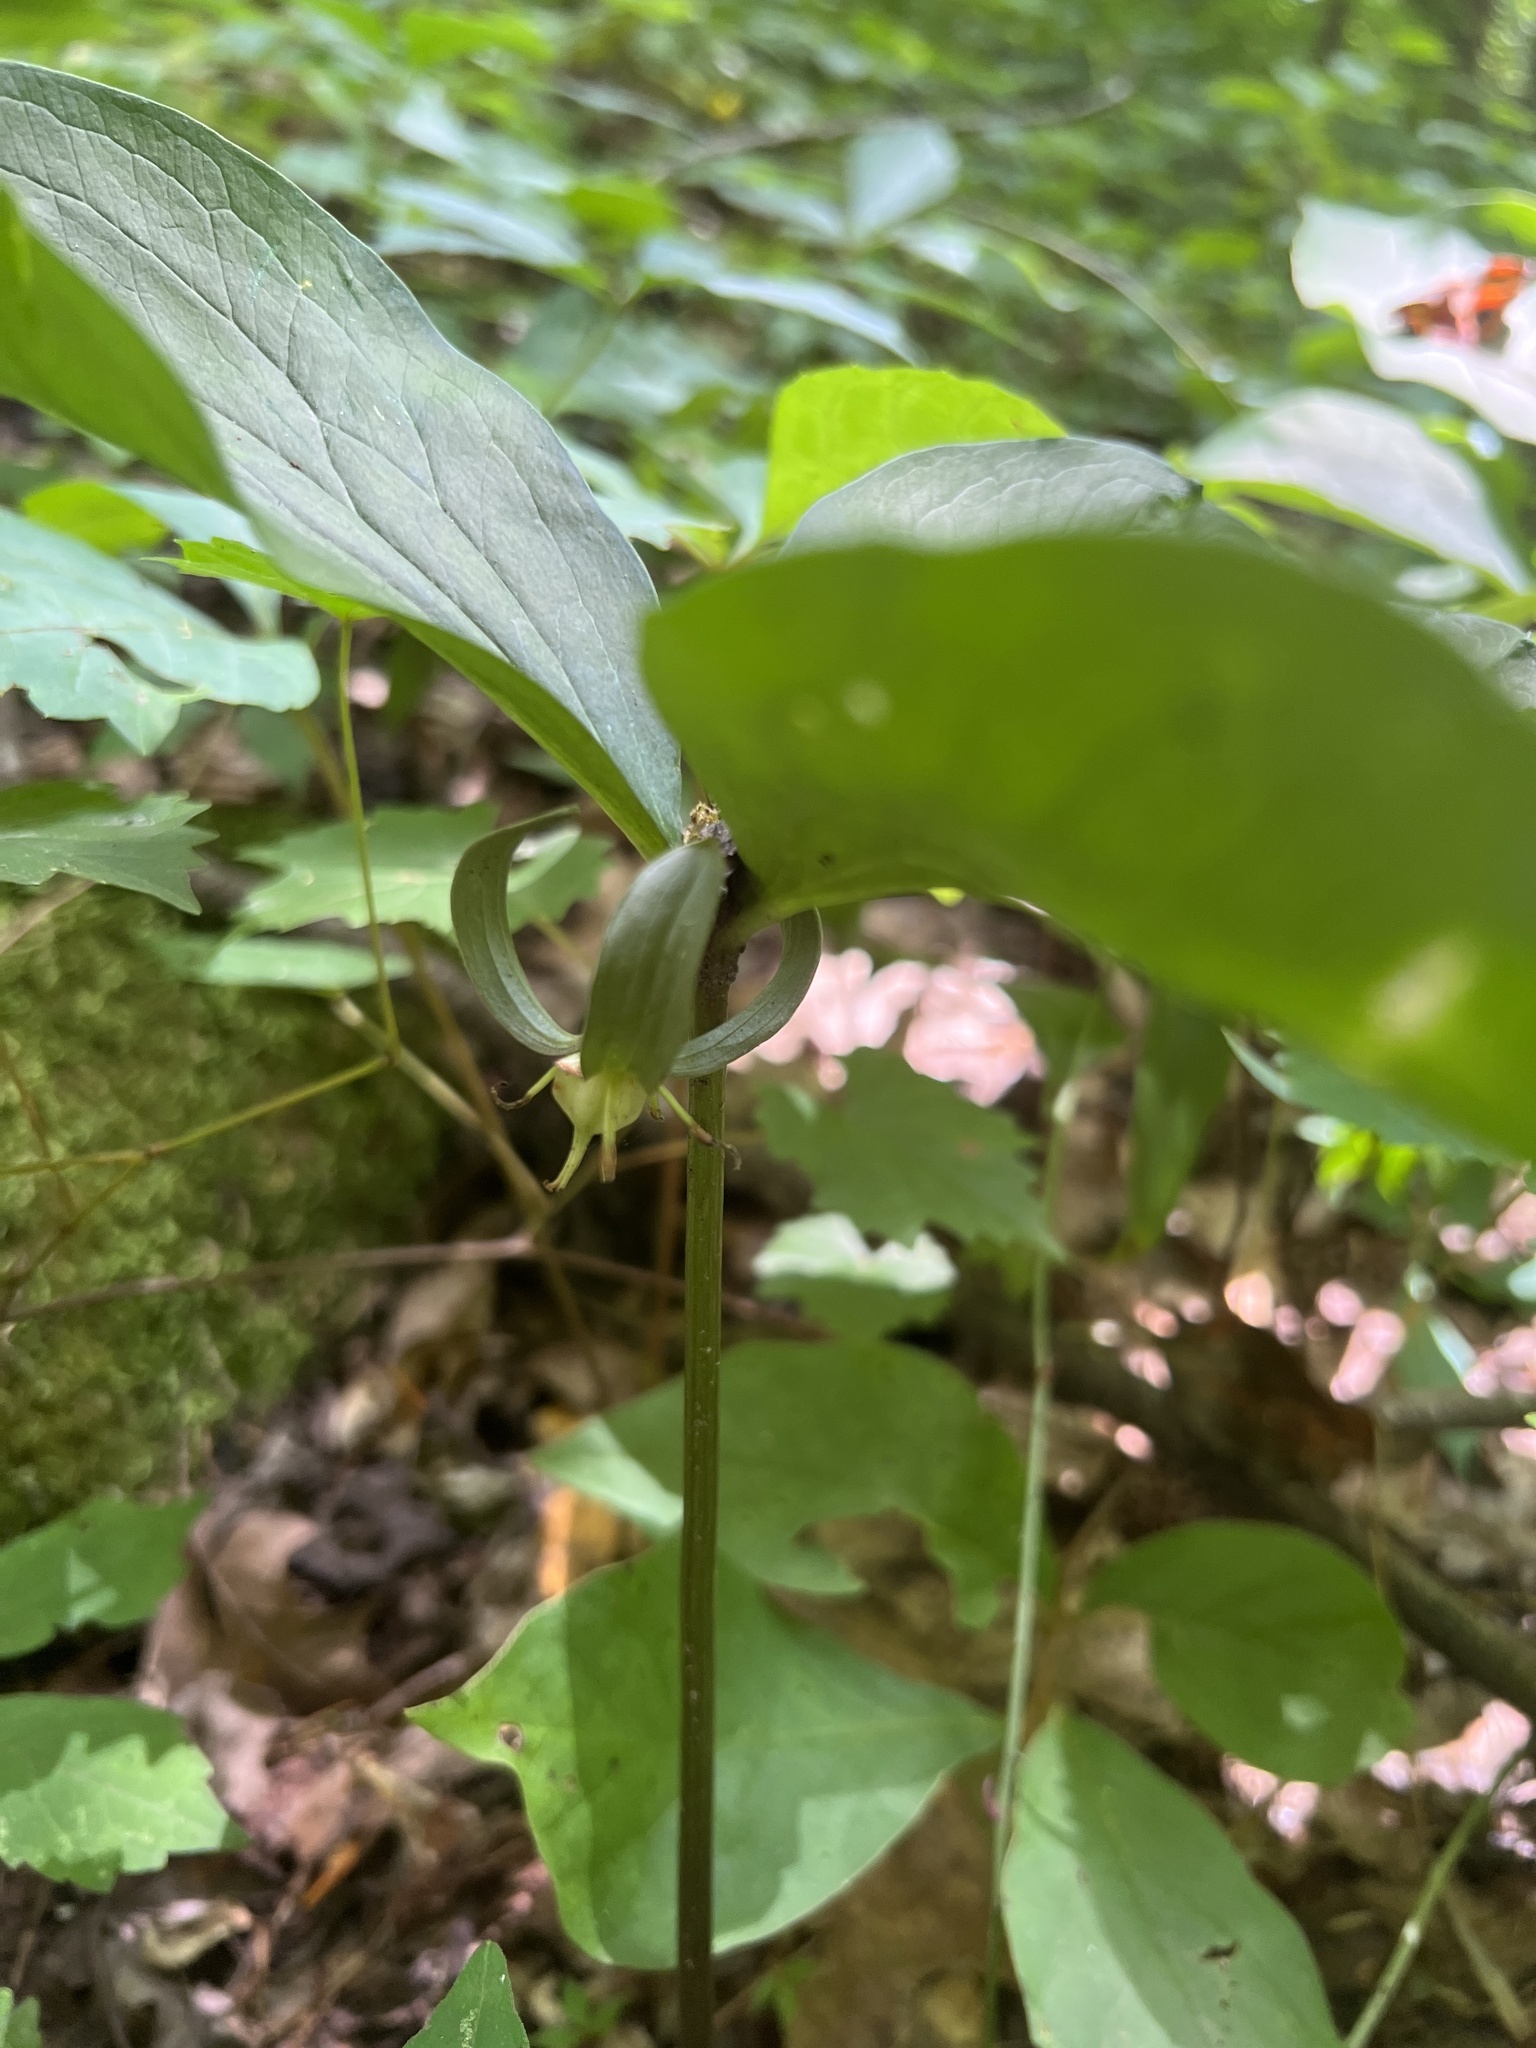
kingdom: Plantae
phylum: Tracheophyta
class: Liliopsida
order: Liliales
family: Melanthiaceae
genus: Trillium
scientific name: Trillium catesbaei
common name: Bashful trillium
